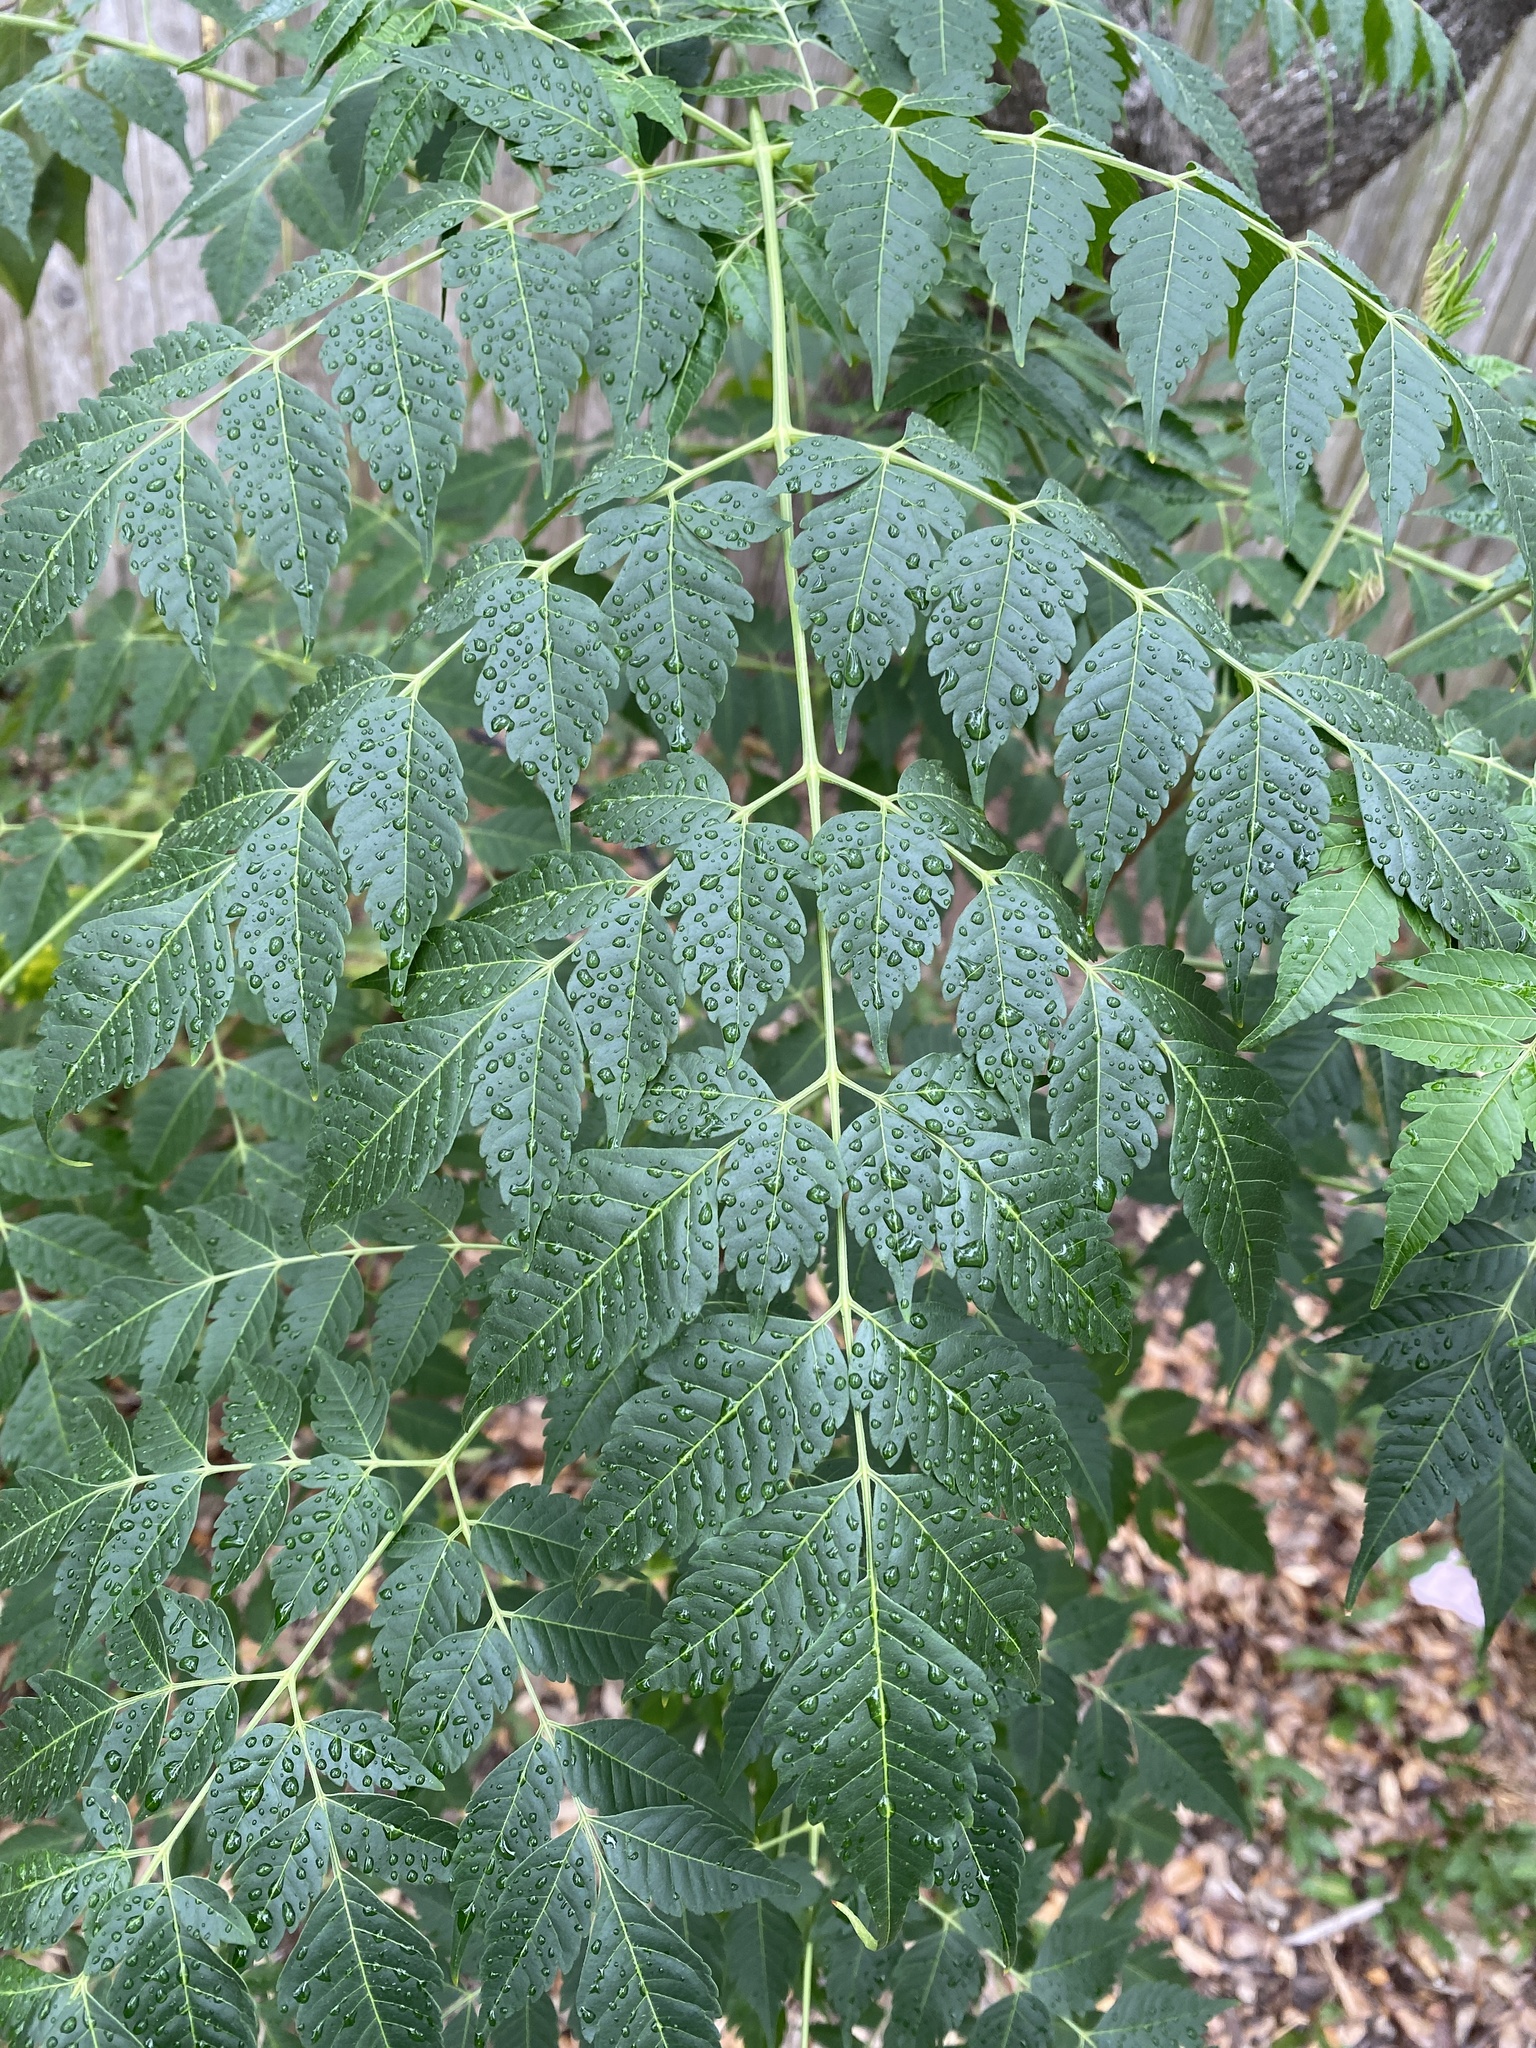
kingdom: Plantae
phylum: Tracheophyta
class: Magnoliopsida
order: Sapindales
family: Meliaceae
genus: Melia
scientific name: Melia azedarach
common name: Chinaberrytree
